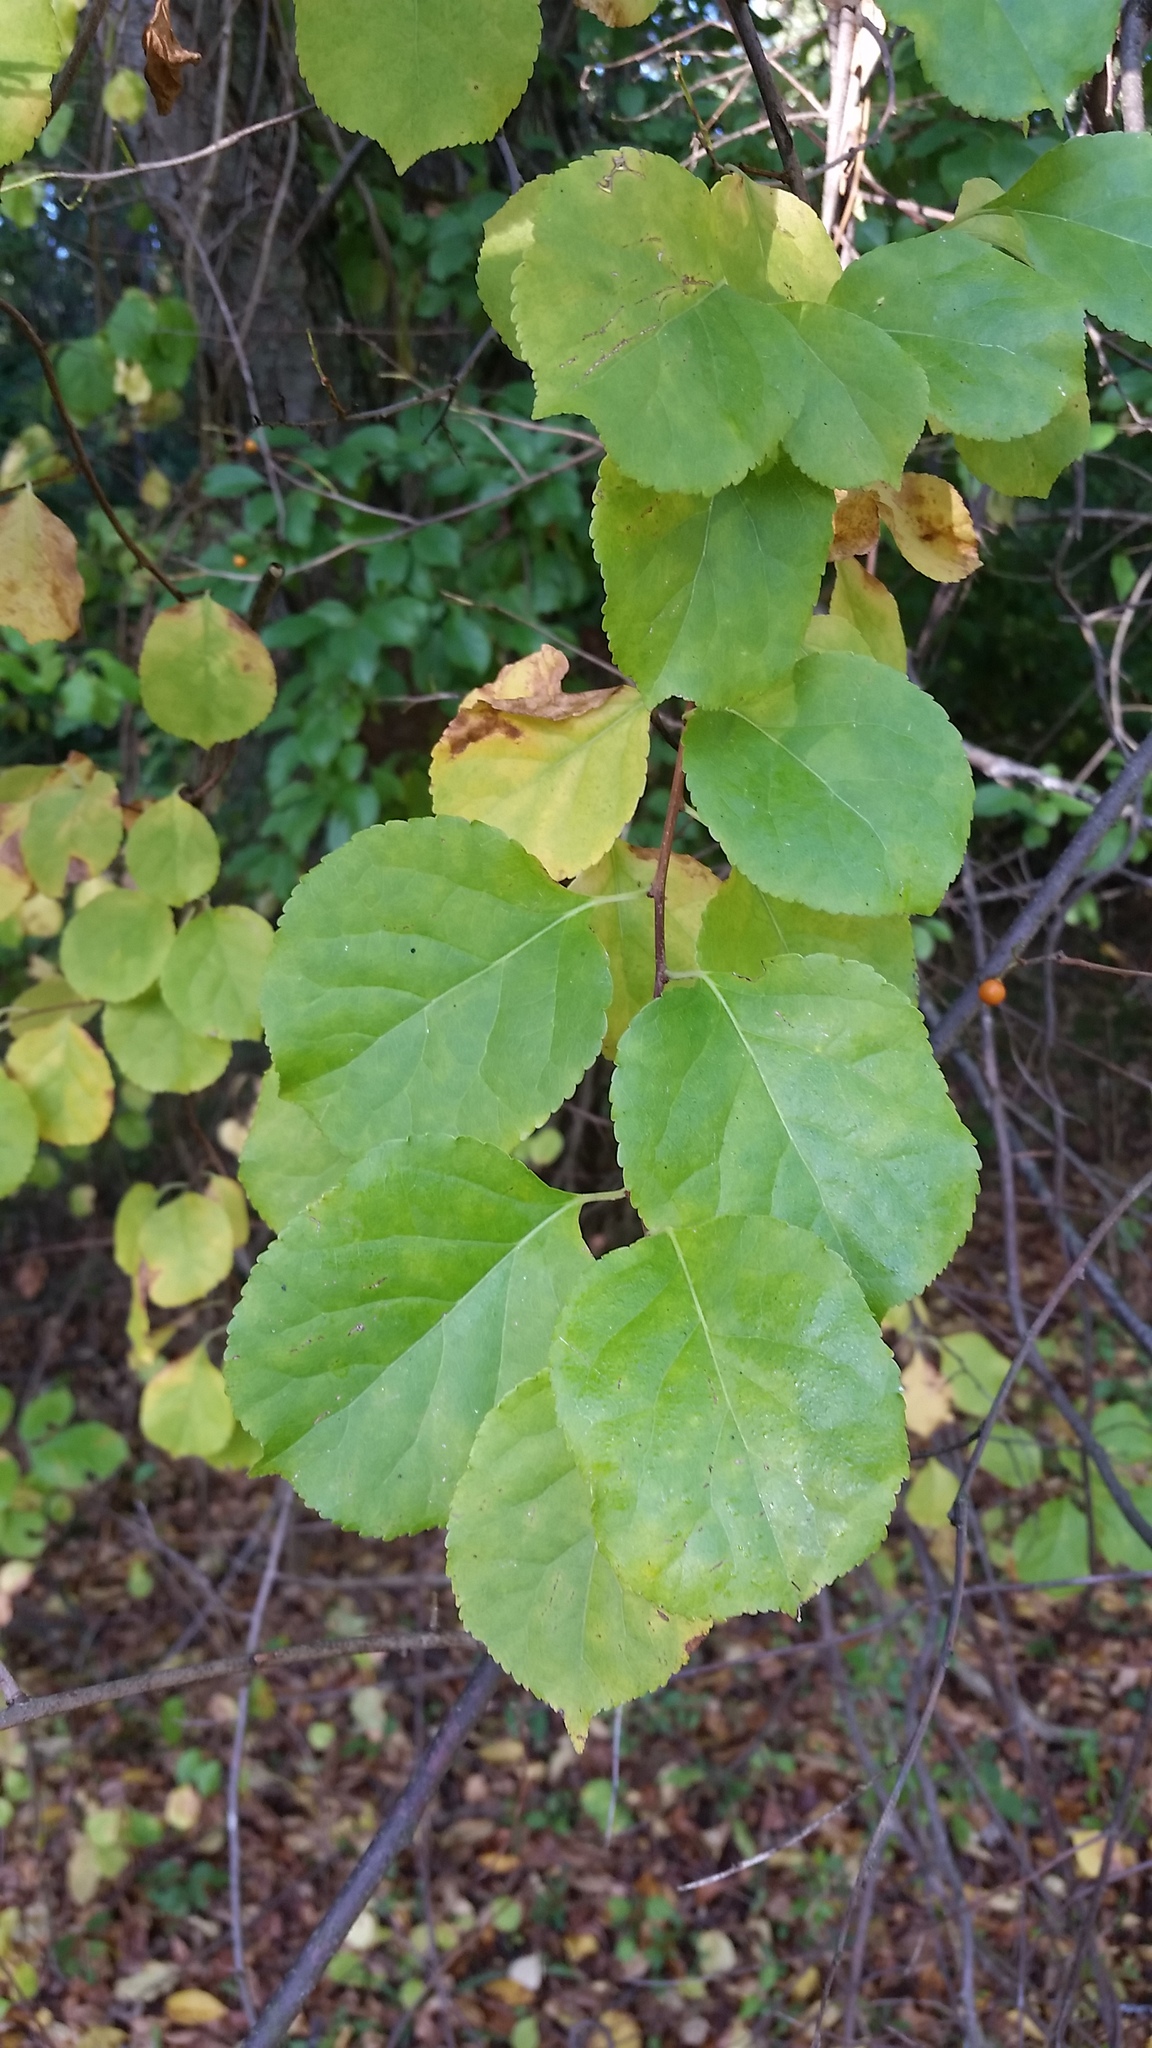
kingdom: Plantae
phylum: Tracheophyta
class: Magnoliopsida
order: Celastrales
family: Celastraceae
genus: Celastrus
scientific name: Celastrus orbiculatus
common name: Oriental bittersweet
